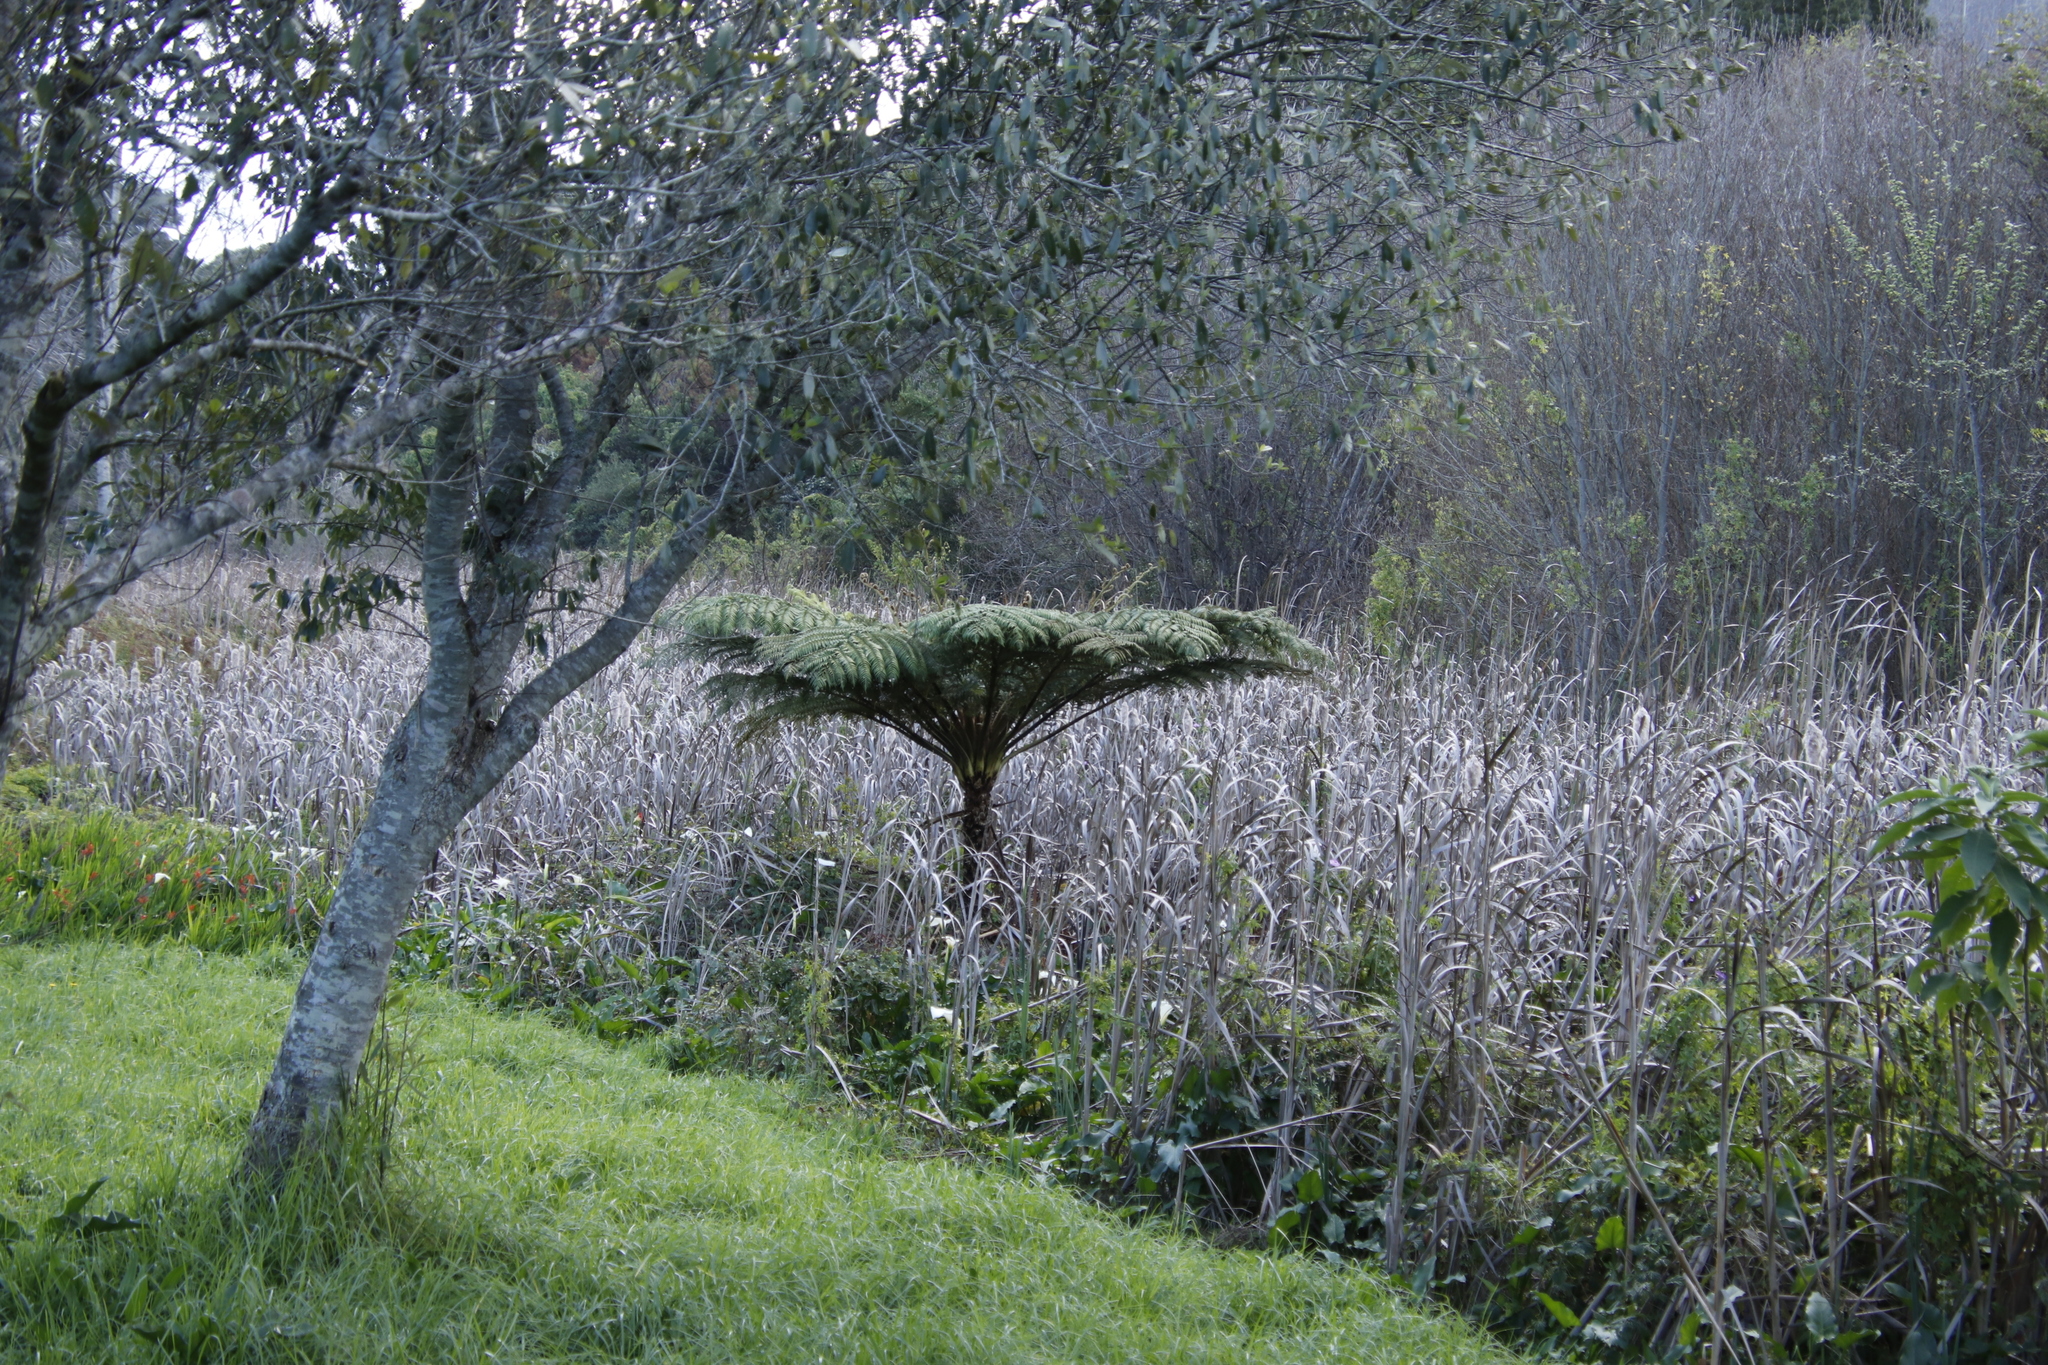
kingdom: Plantae
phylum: Tracheophyta
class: Polypodiopsida
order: Cyatheales
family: Cyatheaceae
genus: Sphaeropteris
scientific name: Sphaeropteris cooperi
